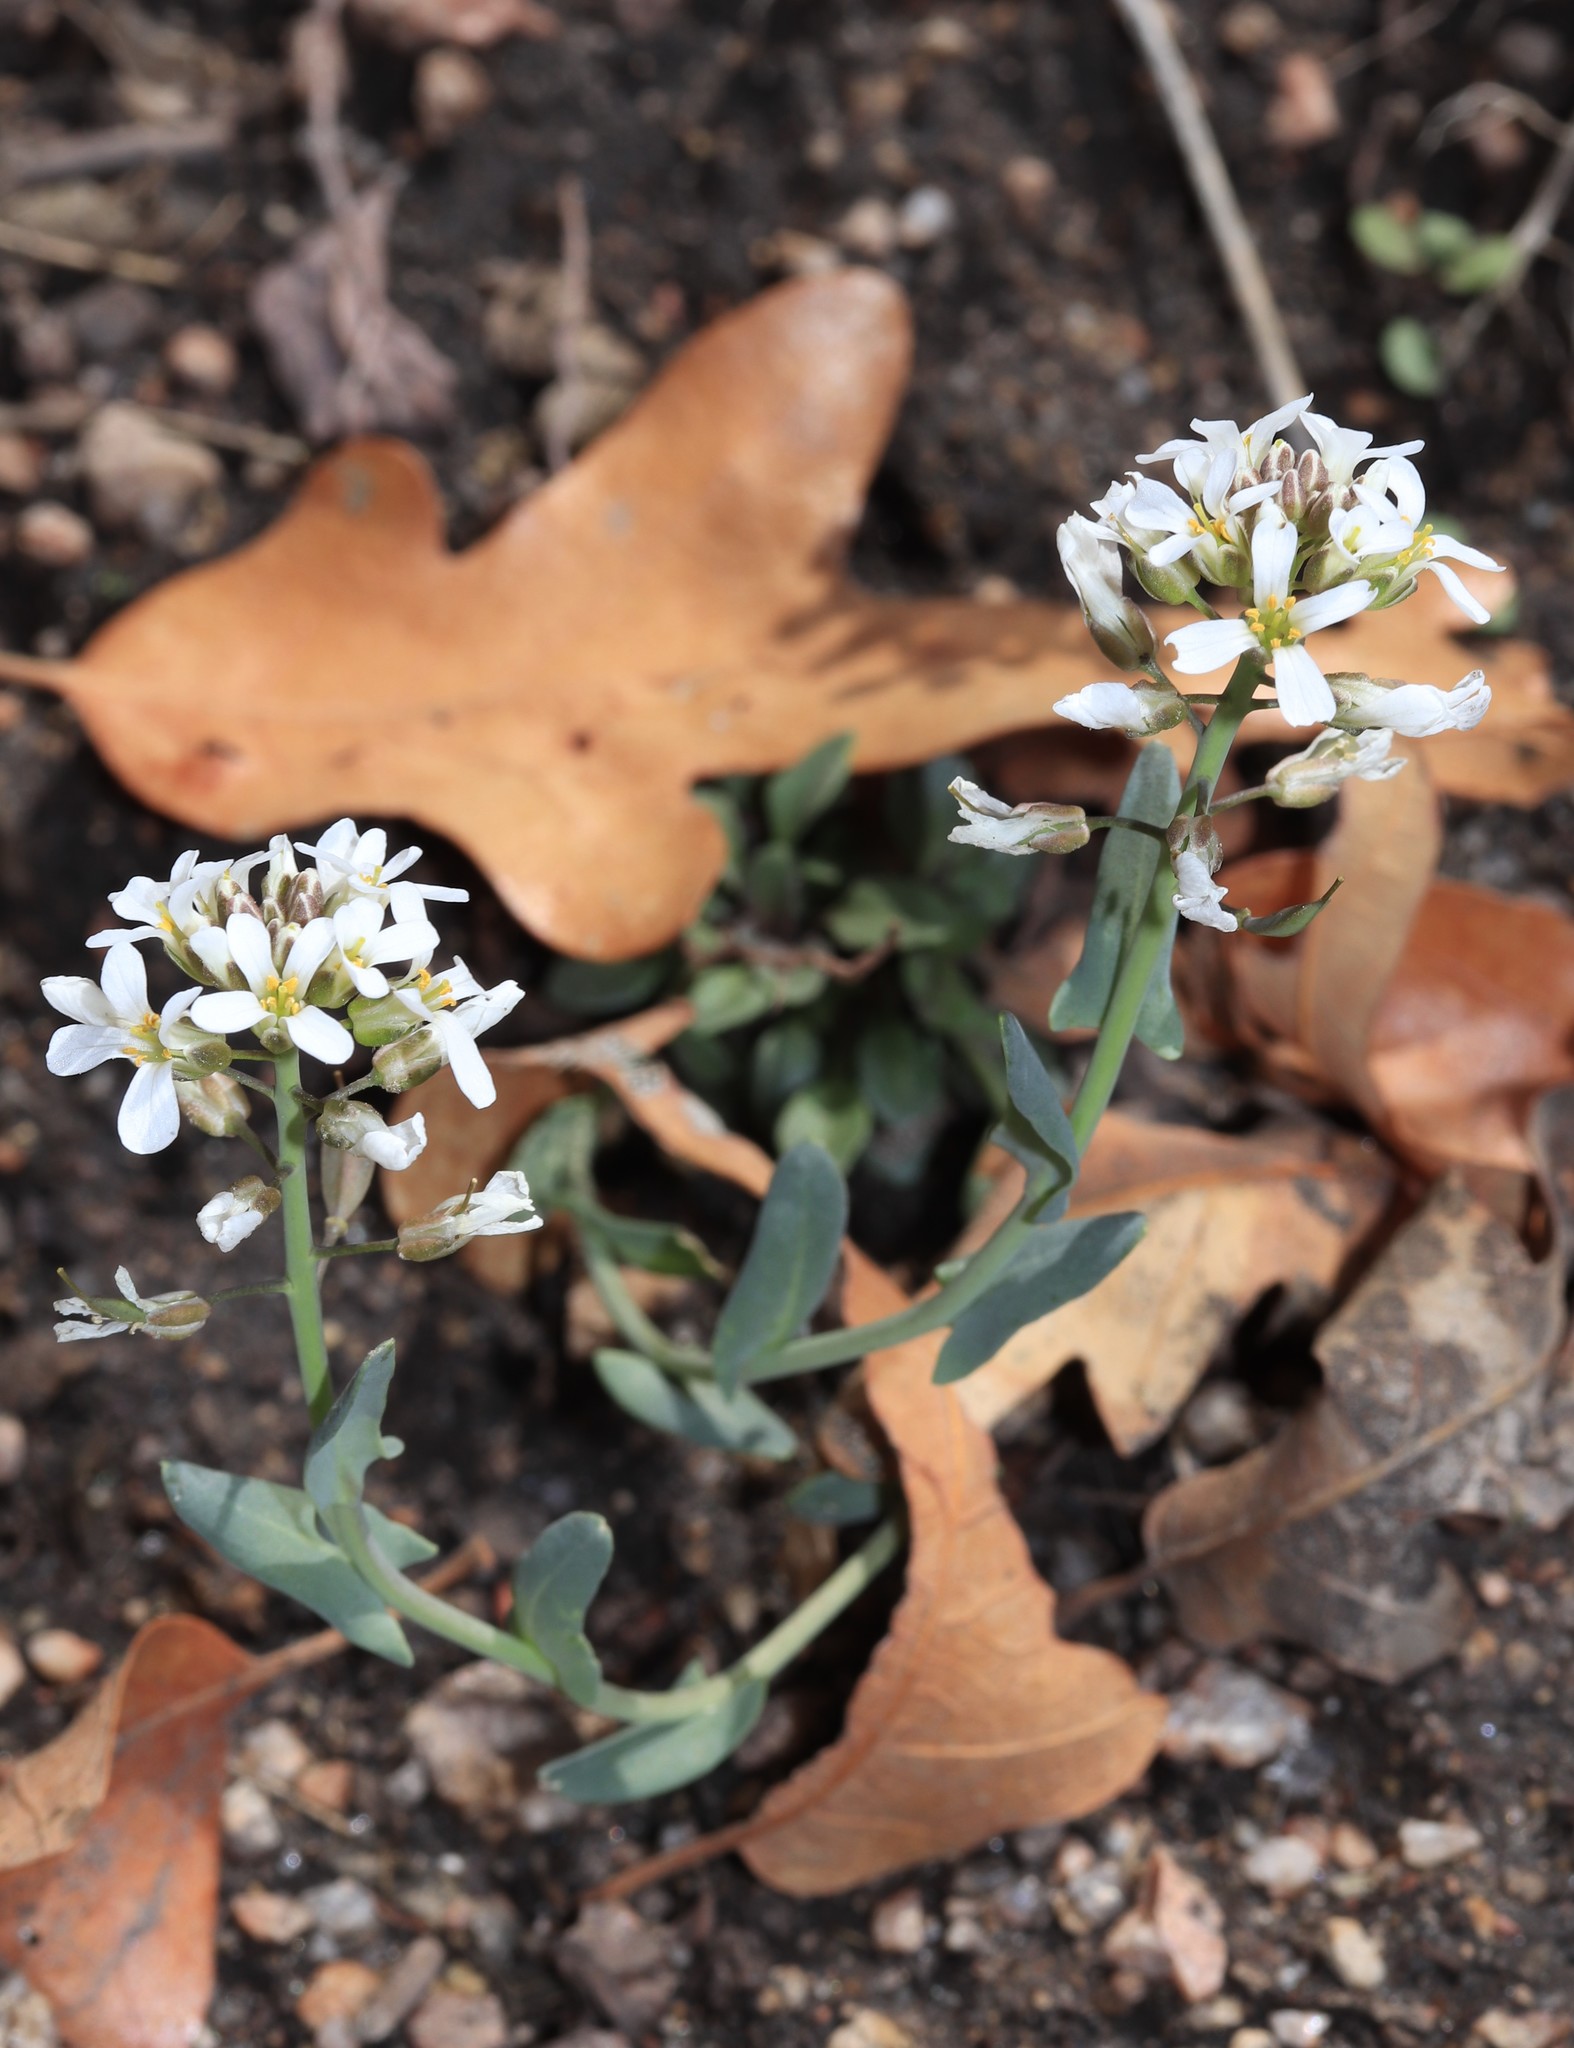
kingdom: Plantae
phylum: Tracheophyta
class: Magnoliopsida
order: Brassicales
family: Brassicaceae
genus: Noccaea
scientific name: Noccaea fendleri
